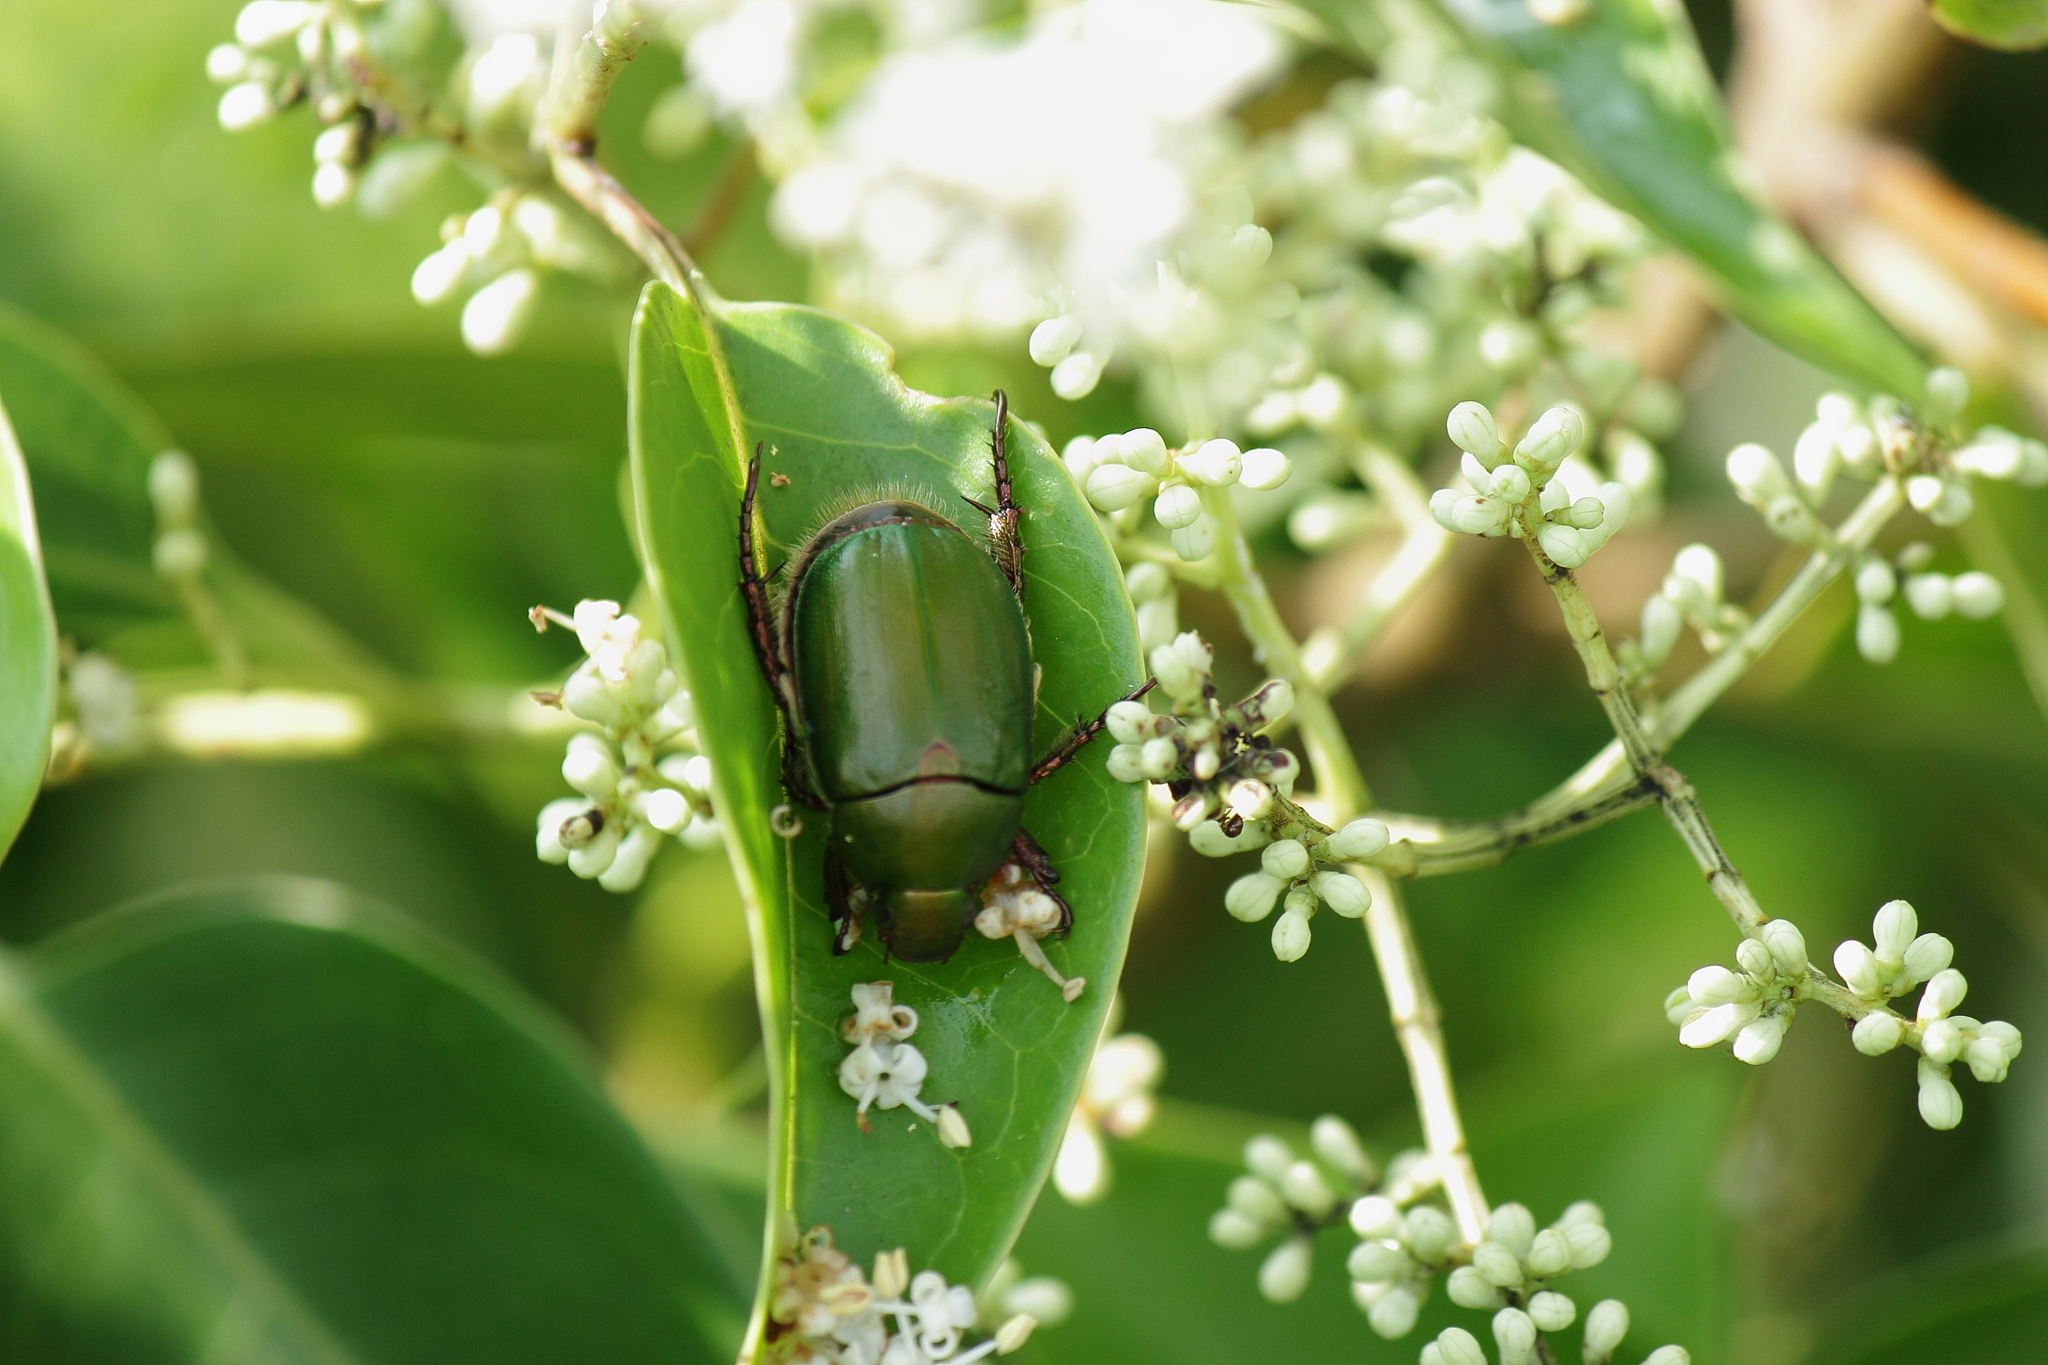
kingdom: Animalia
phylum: Arthropoda
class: Insecta
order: Coleoptera
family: Scarabaeidae
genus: Anomala
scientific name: Anomala albopilosa
